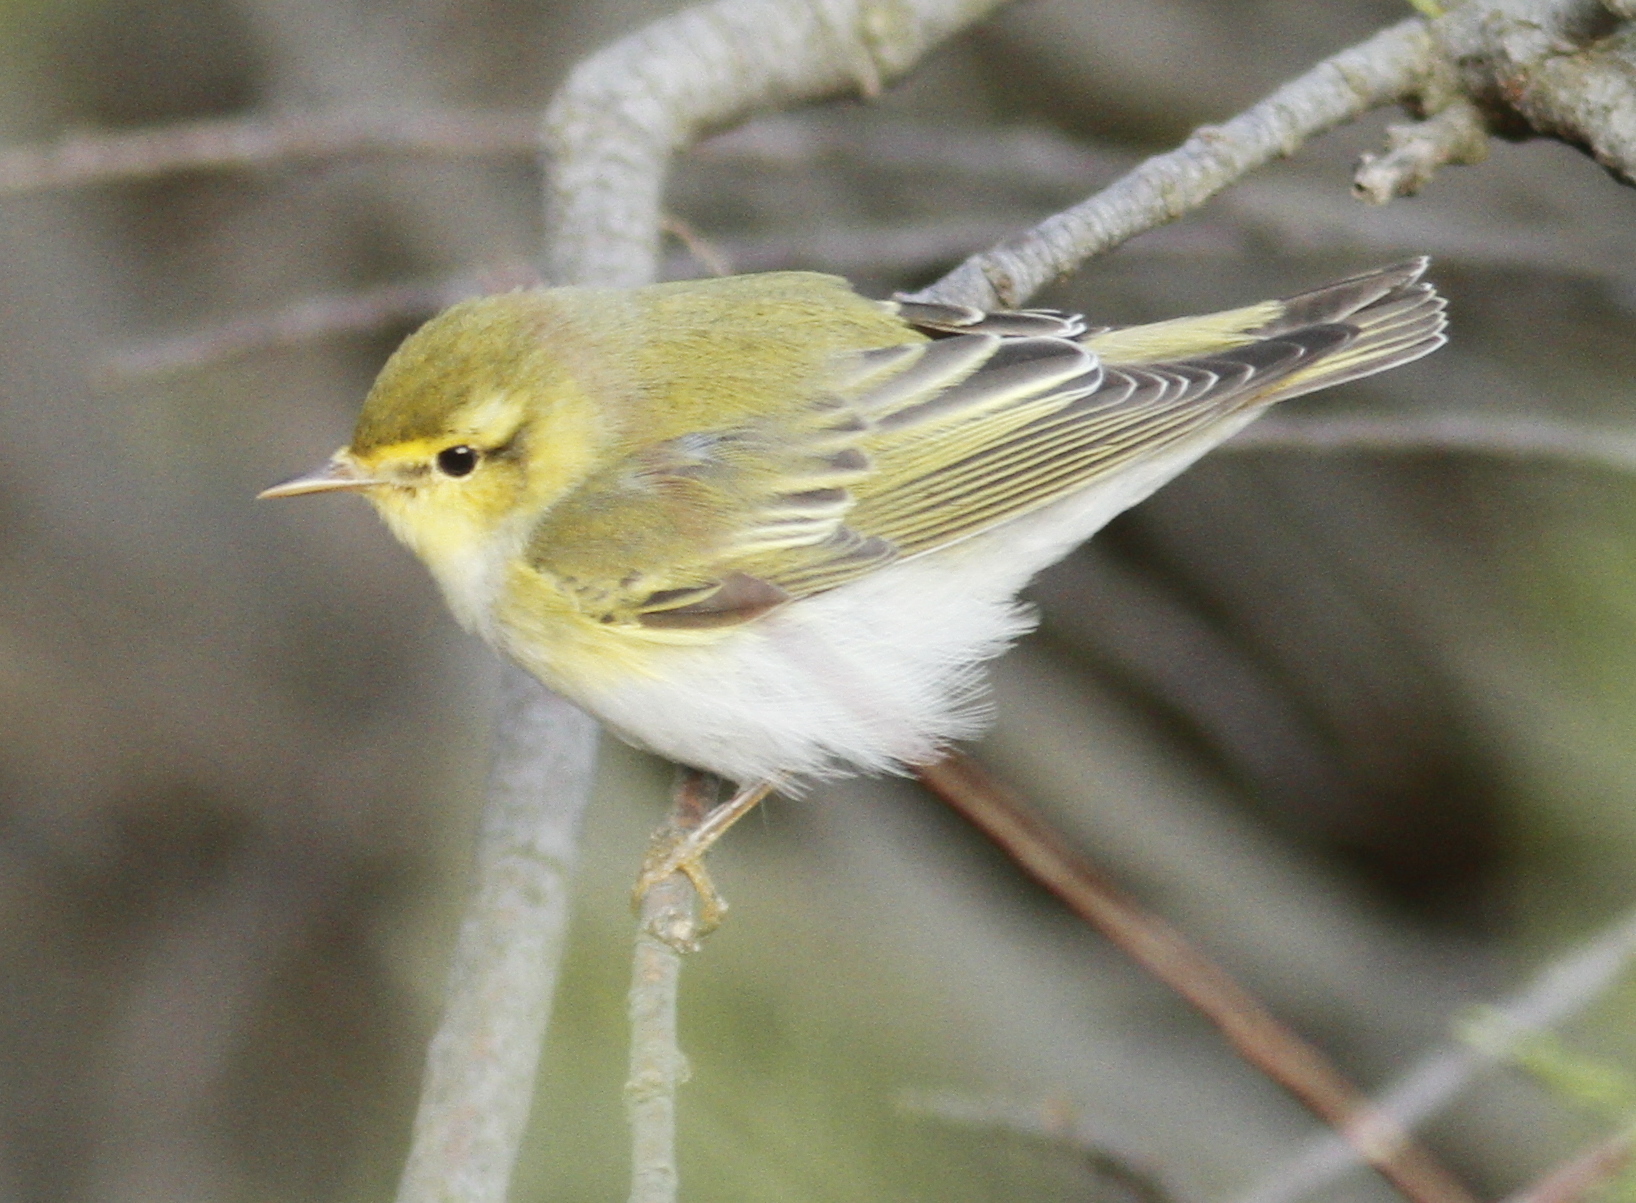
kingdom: Animalia
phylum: Chordata
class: Aves
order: Passeriformes
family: Phylloscopidae
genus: Phylloscopus
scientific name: Phylloscopus sibillatrix
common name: Wood warbler
